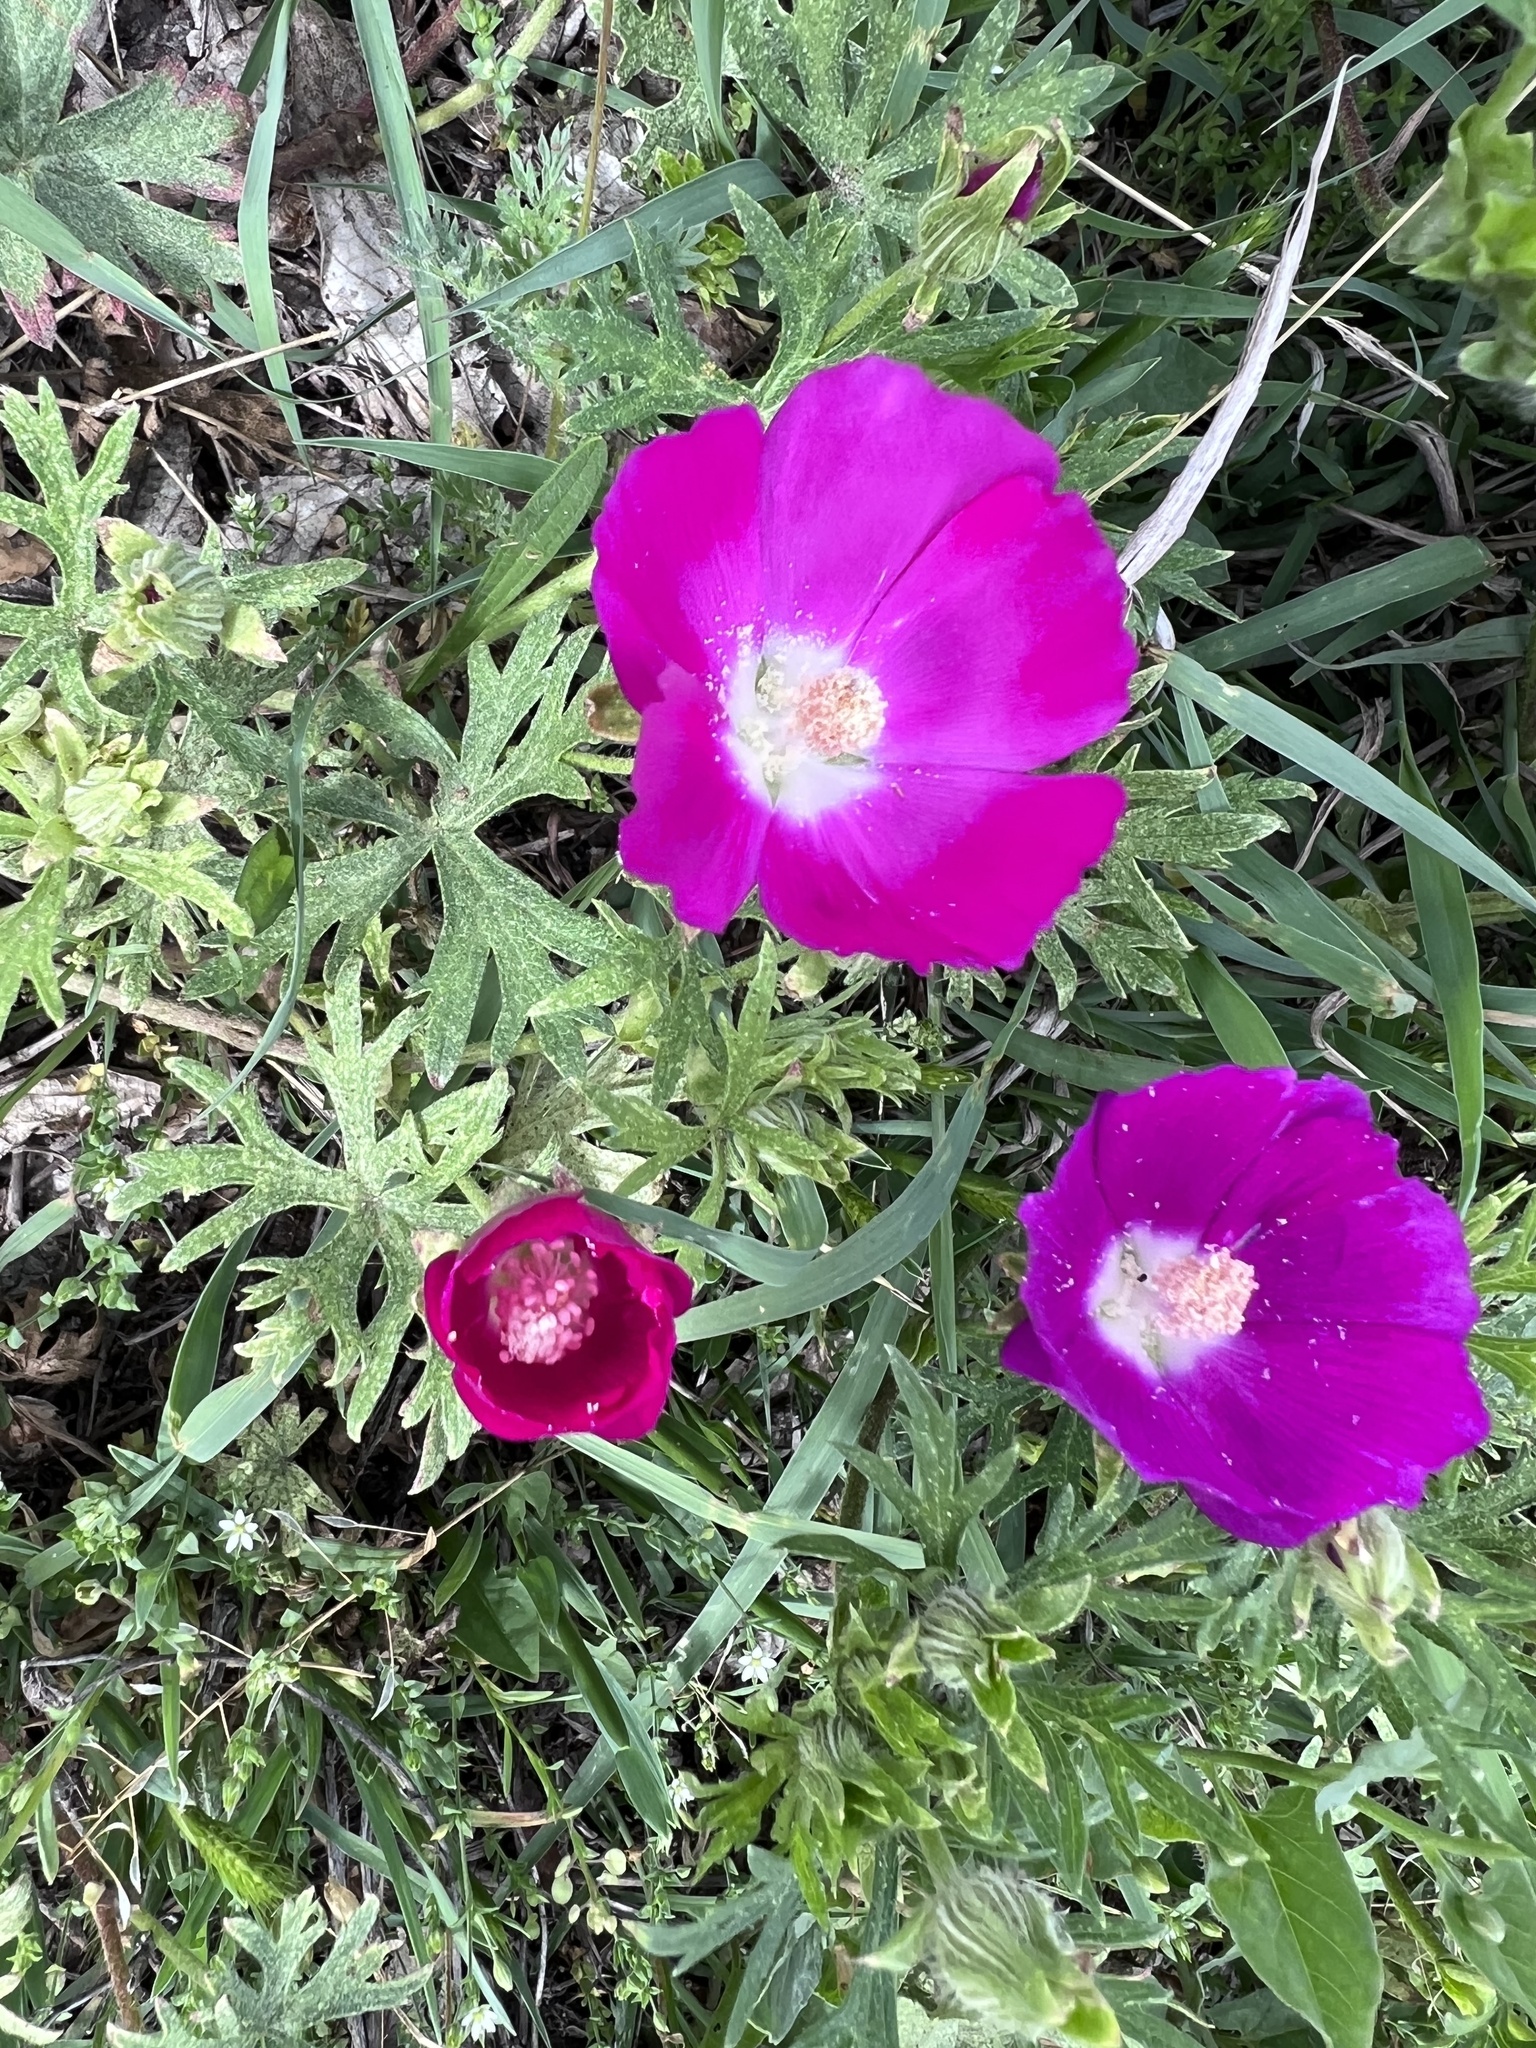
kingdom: Plantae
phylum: Tracheophyta
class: Magnoliopsida
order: Malvales
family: Malvaceae
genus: Callirhoe
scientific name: Callirhoe involucrata
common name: Purple poppy-mallow
